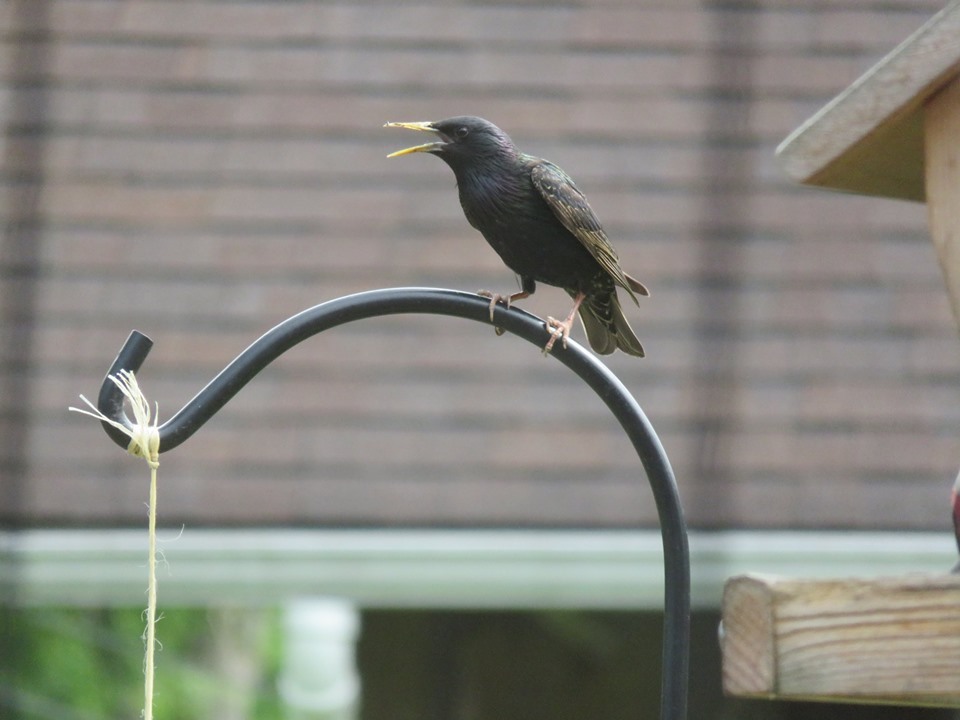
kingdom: Animalia
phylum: Chordata
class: Aves
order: Passeriformes
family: Sturnidae
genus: Sturnus
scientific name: Sturnus vulgaris
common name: Common starling
